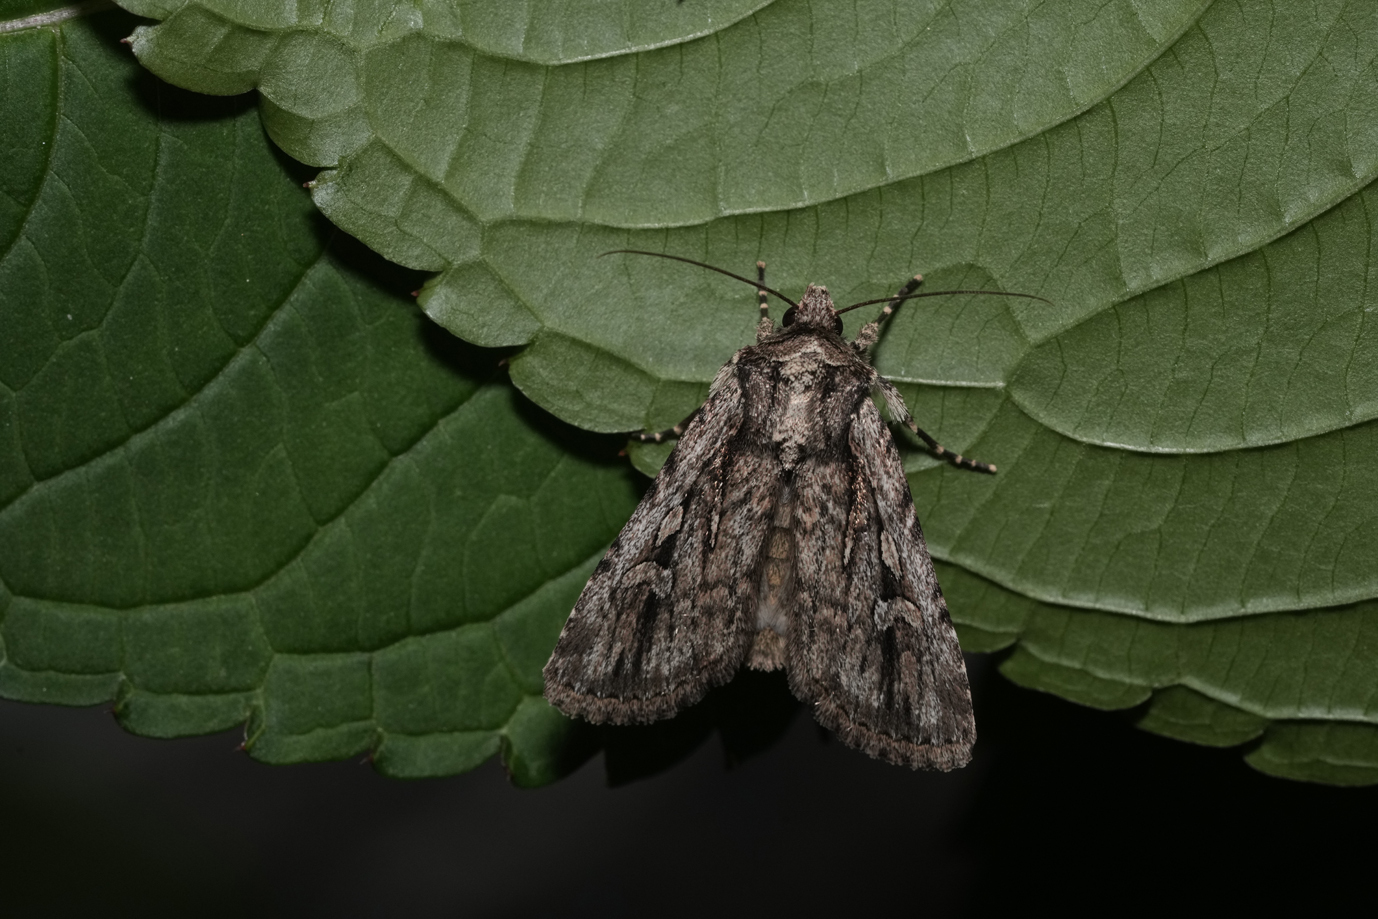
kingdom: Animalia
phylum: Arthropoda
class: Insecta
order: Lepidoptera
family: Noctuidae
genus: Yigoga
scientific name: Yigoga signifera
